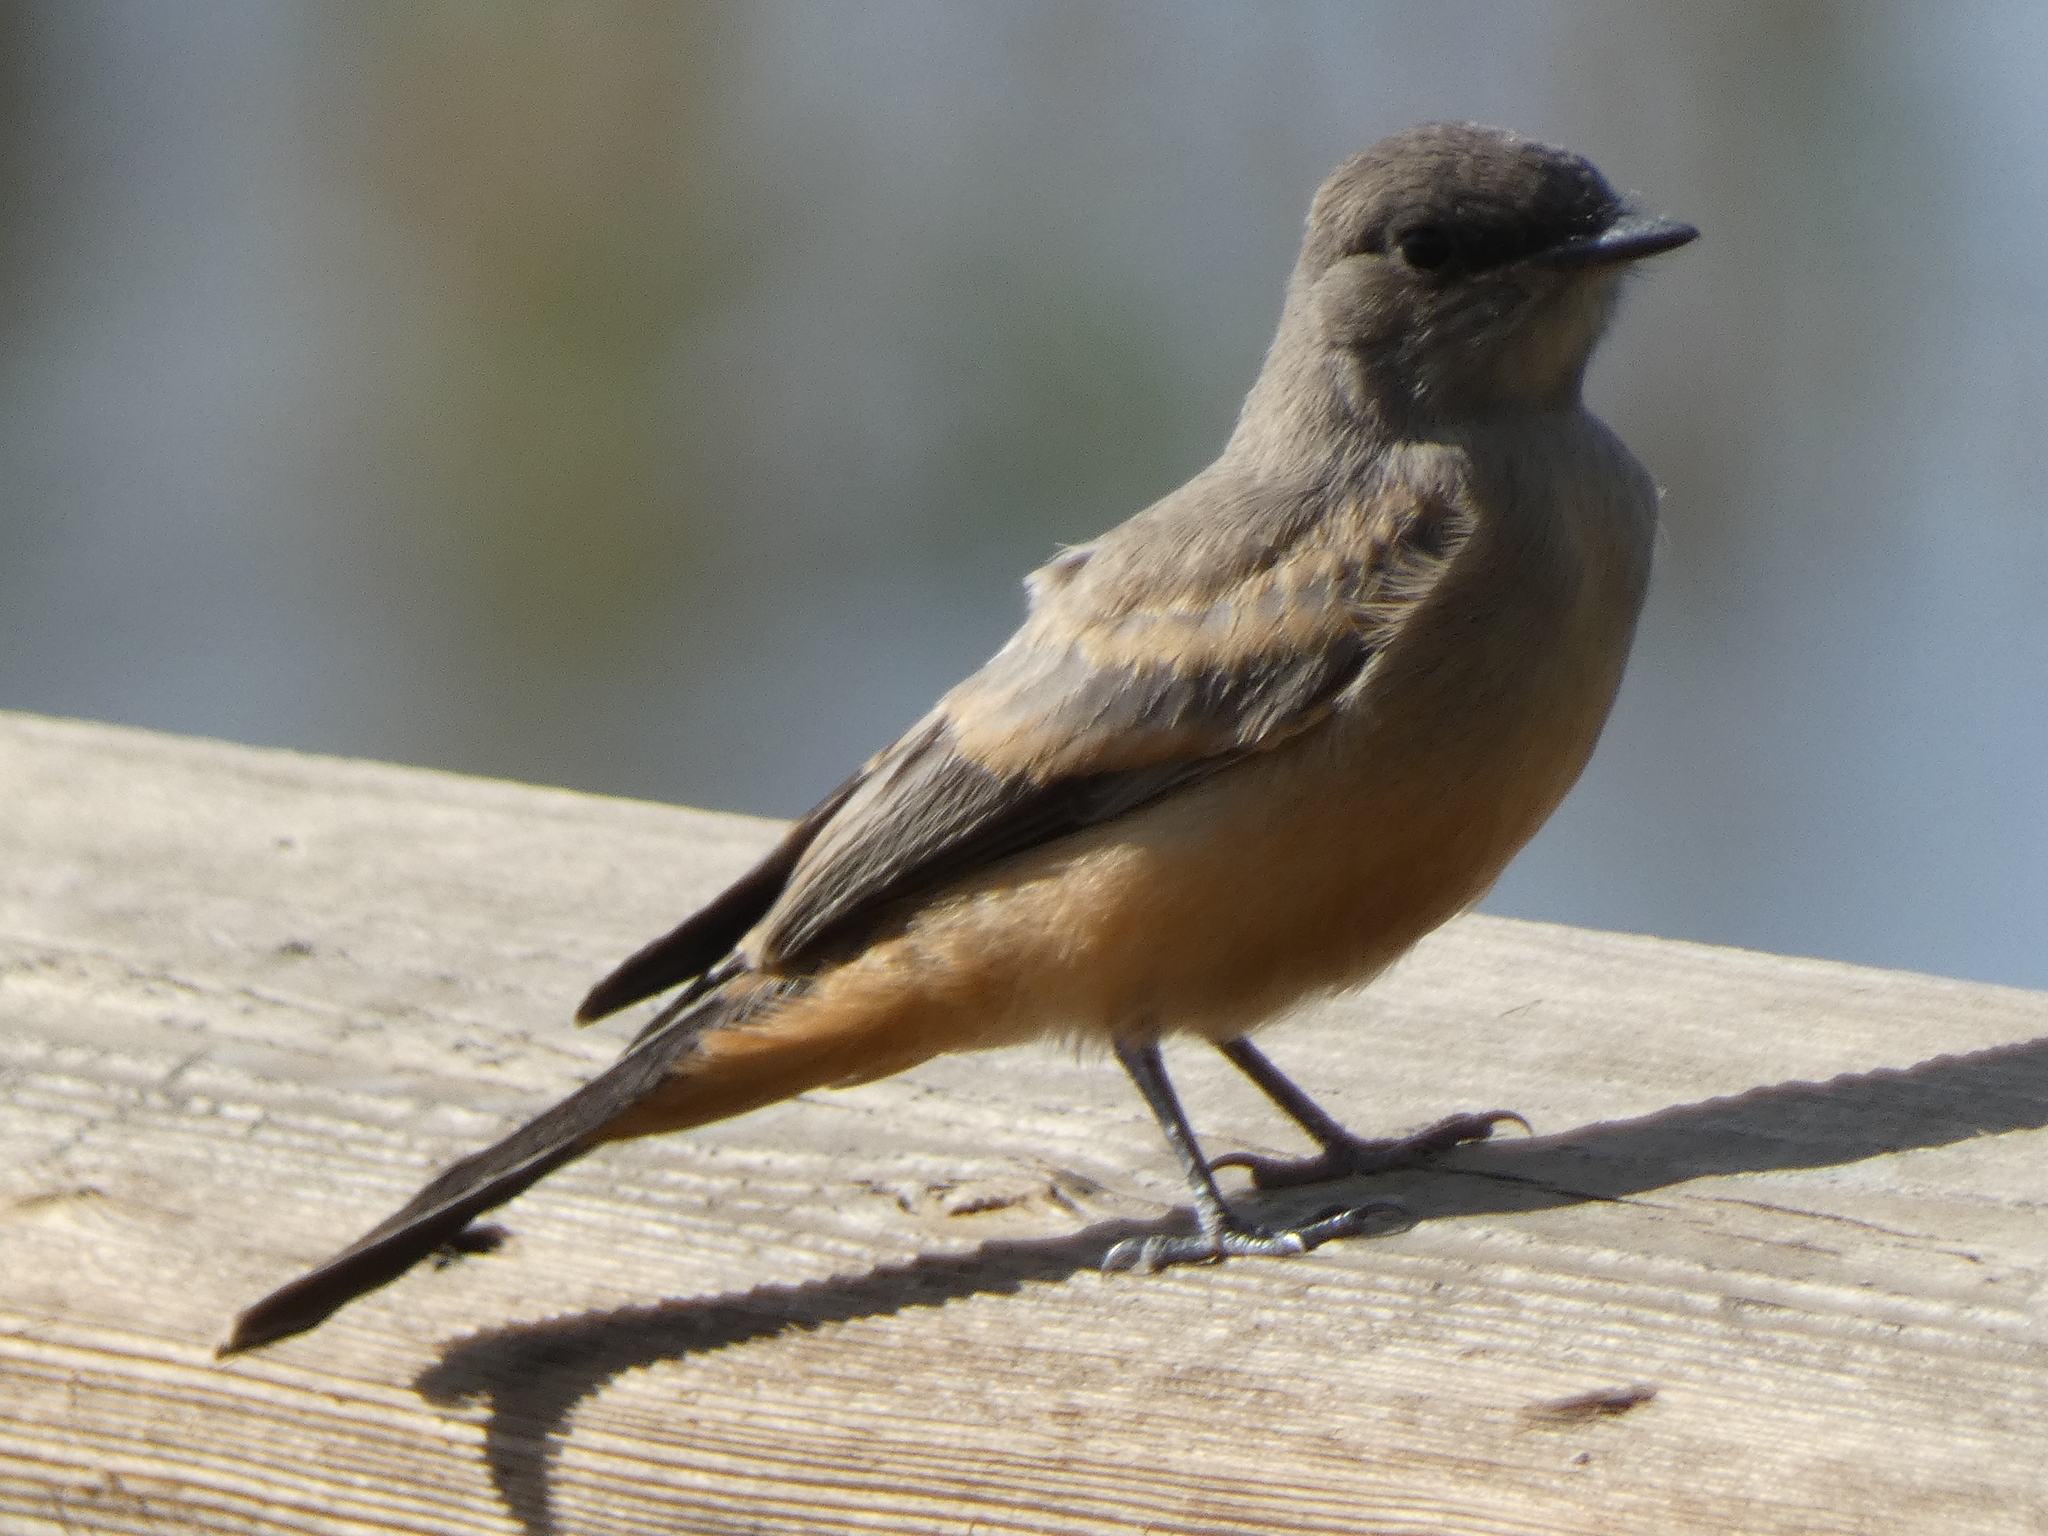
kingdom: Animalia
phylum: Chordata
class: Aves
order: Passeriformes
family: Tyrannidae
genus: Sayornis
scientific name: Sayornis saya
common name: Say's phoebe
